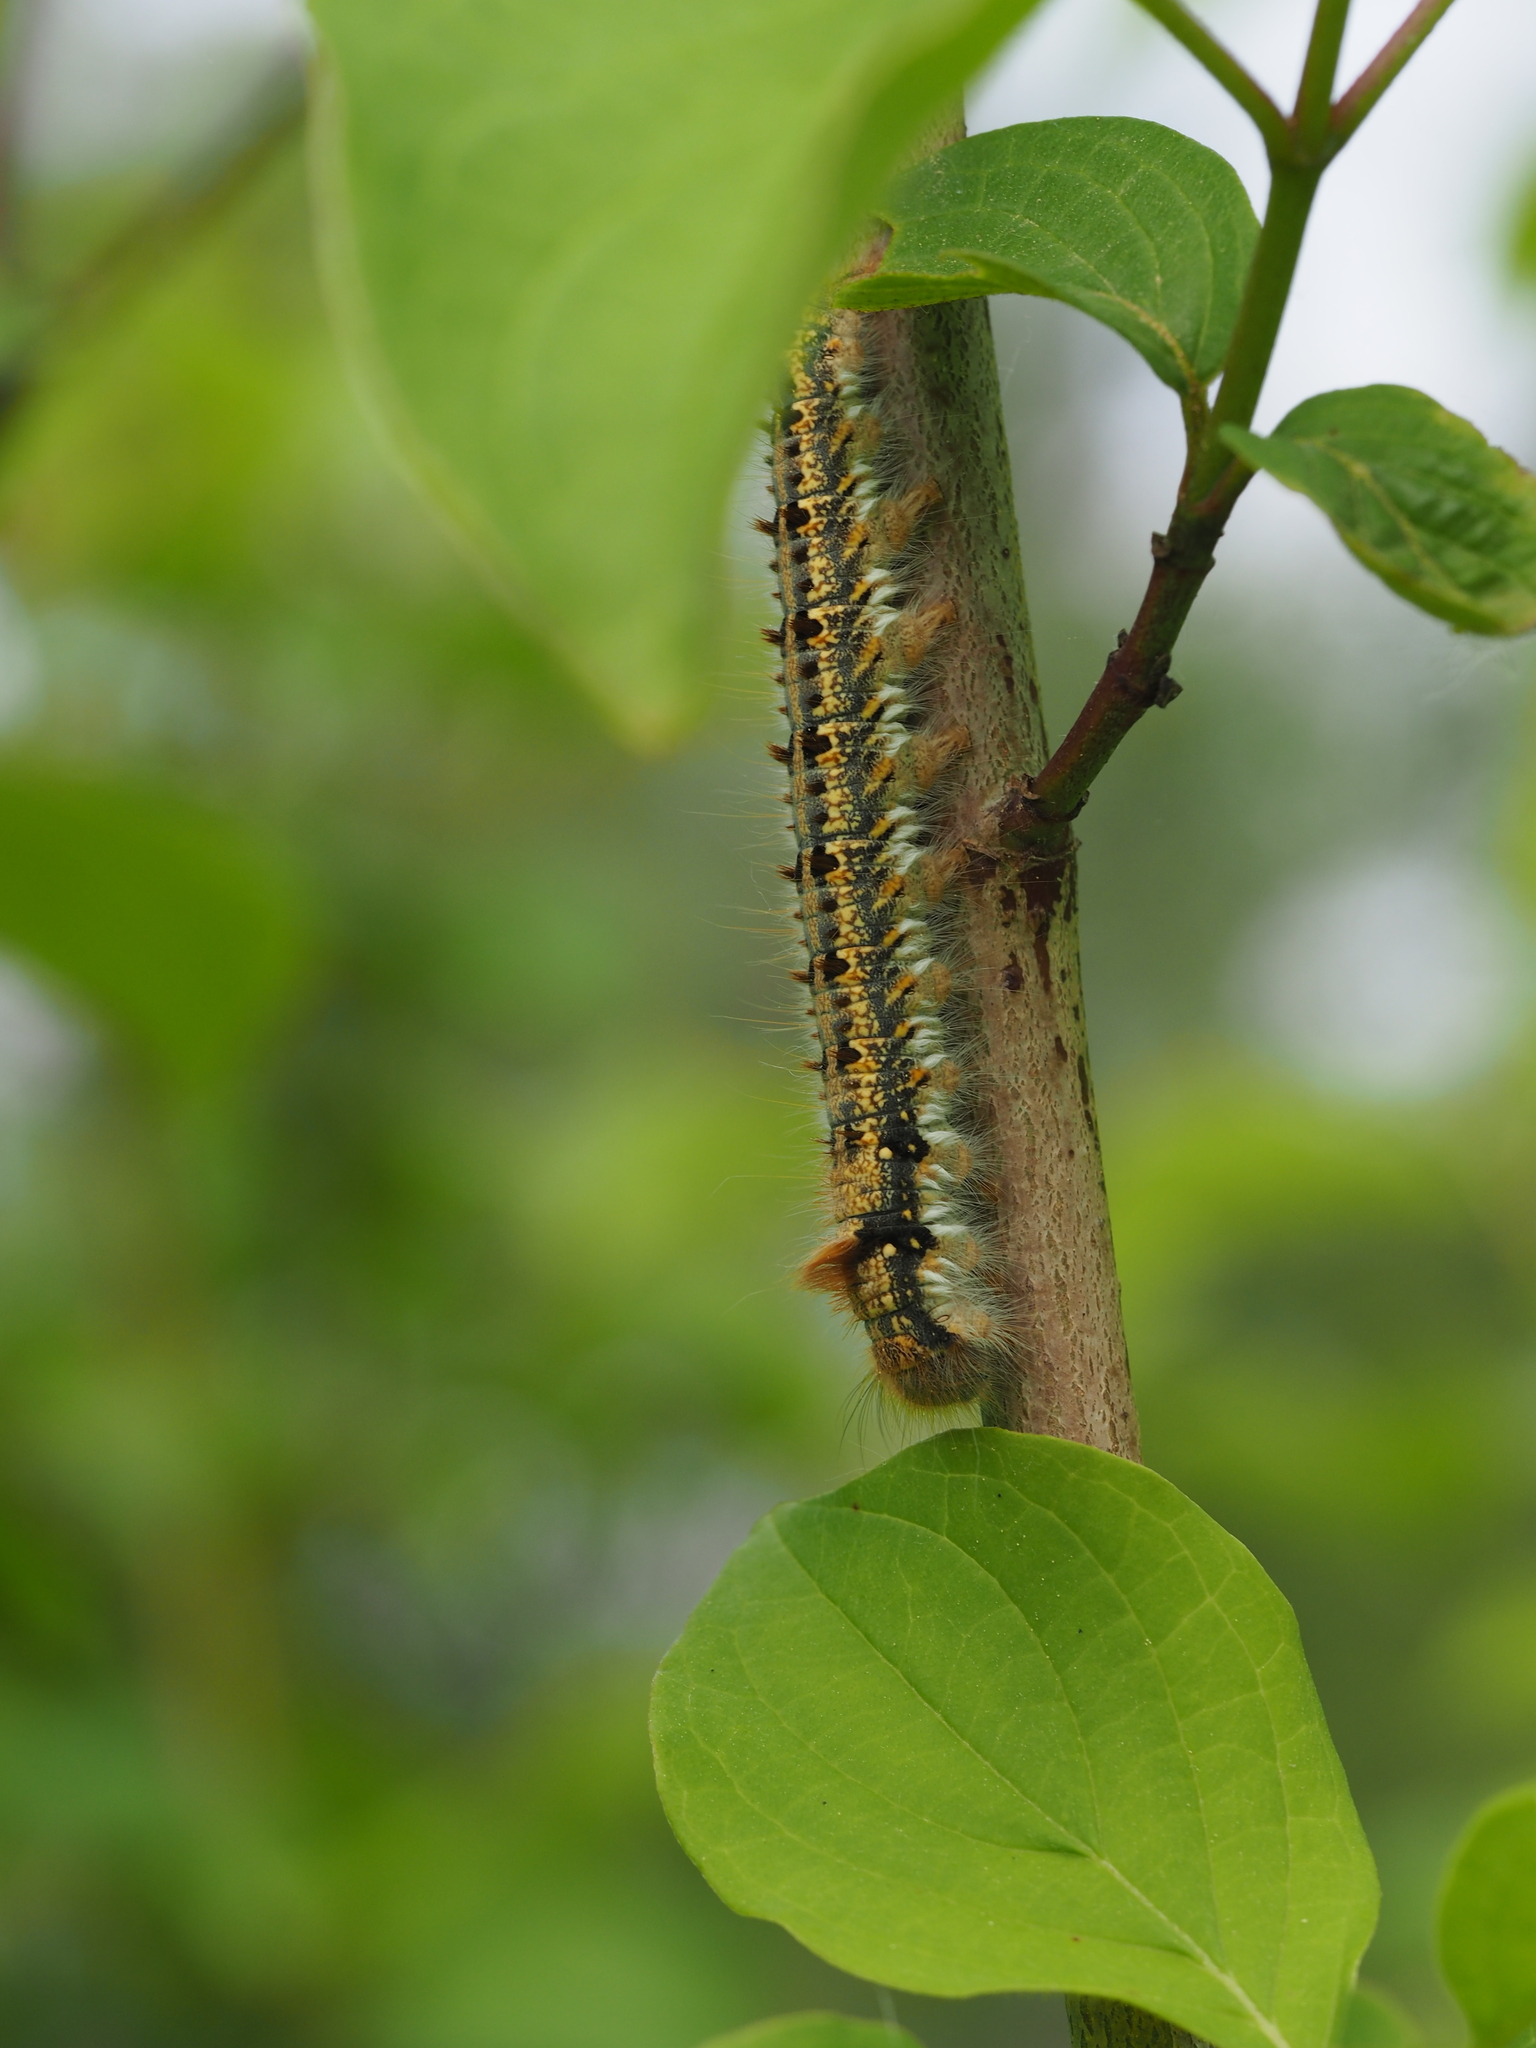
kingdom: Animalia
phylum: Arthropoda
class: Insecta
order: Lepidoptera
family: Lasiocampidae
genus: Euthrix
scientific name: Euthrix potatoria
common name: Drinker
